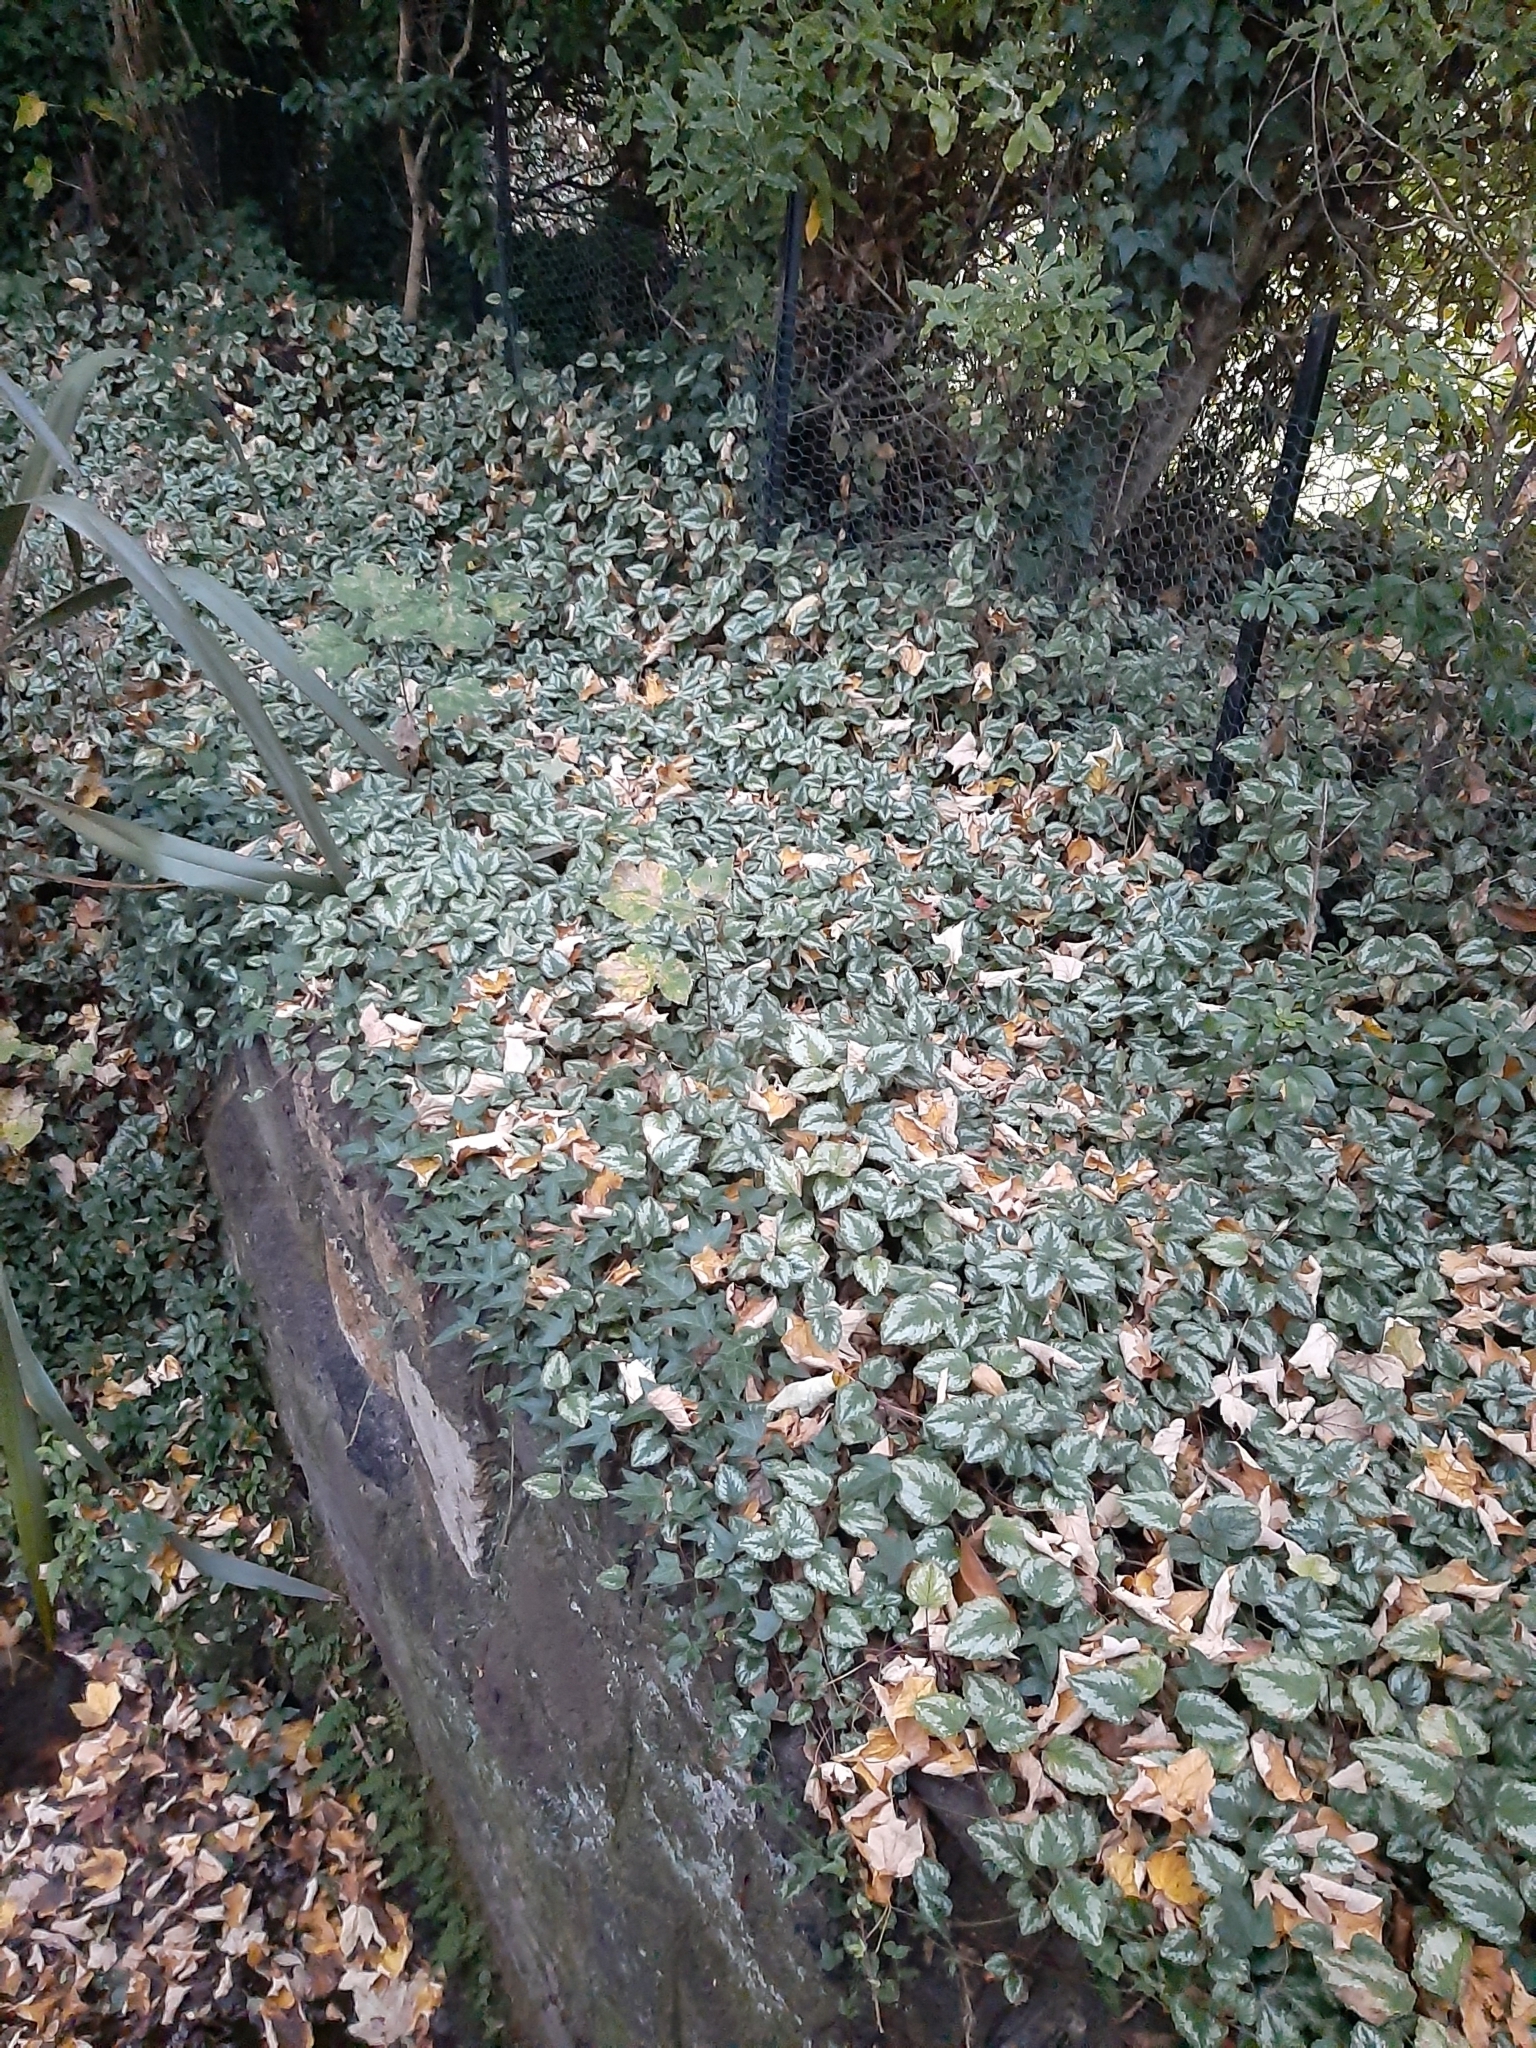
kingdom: Plantae
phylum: Tracheophyta
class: Magnoliopsida
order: Lamiales
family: Lamiaceae
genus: Lamium
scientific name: Lamium galeobdolon
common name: Yellow archangel
